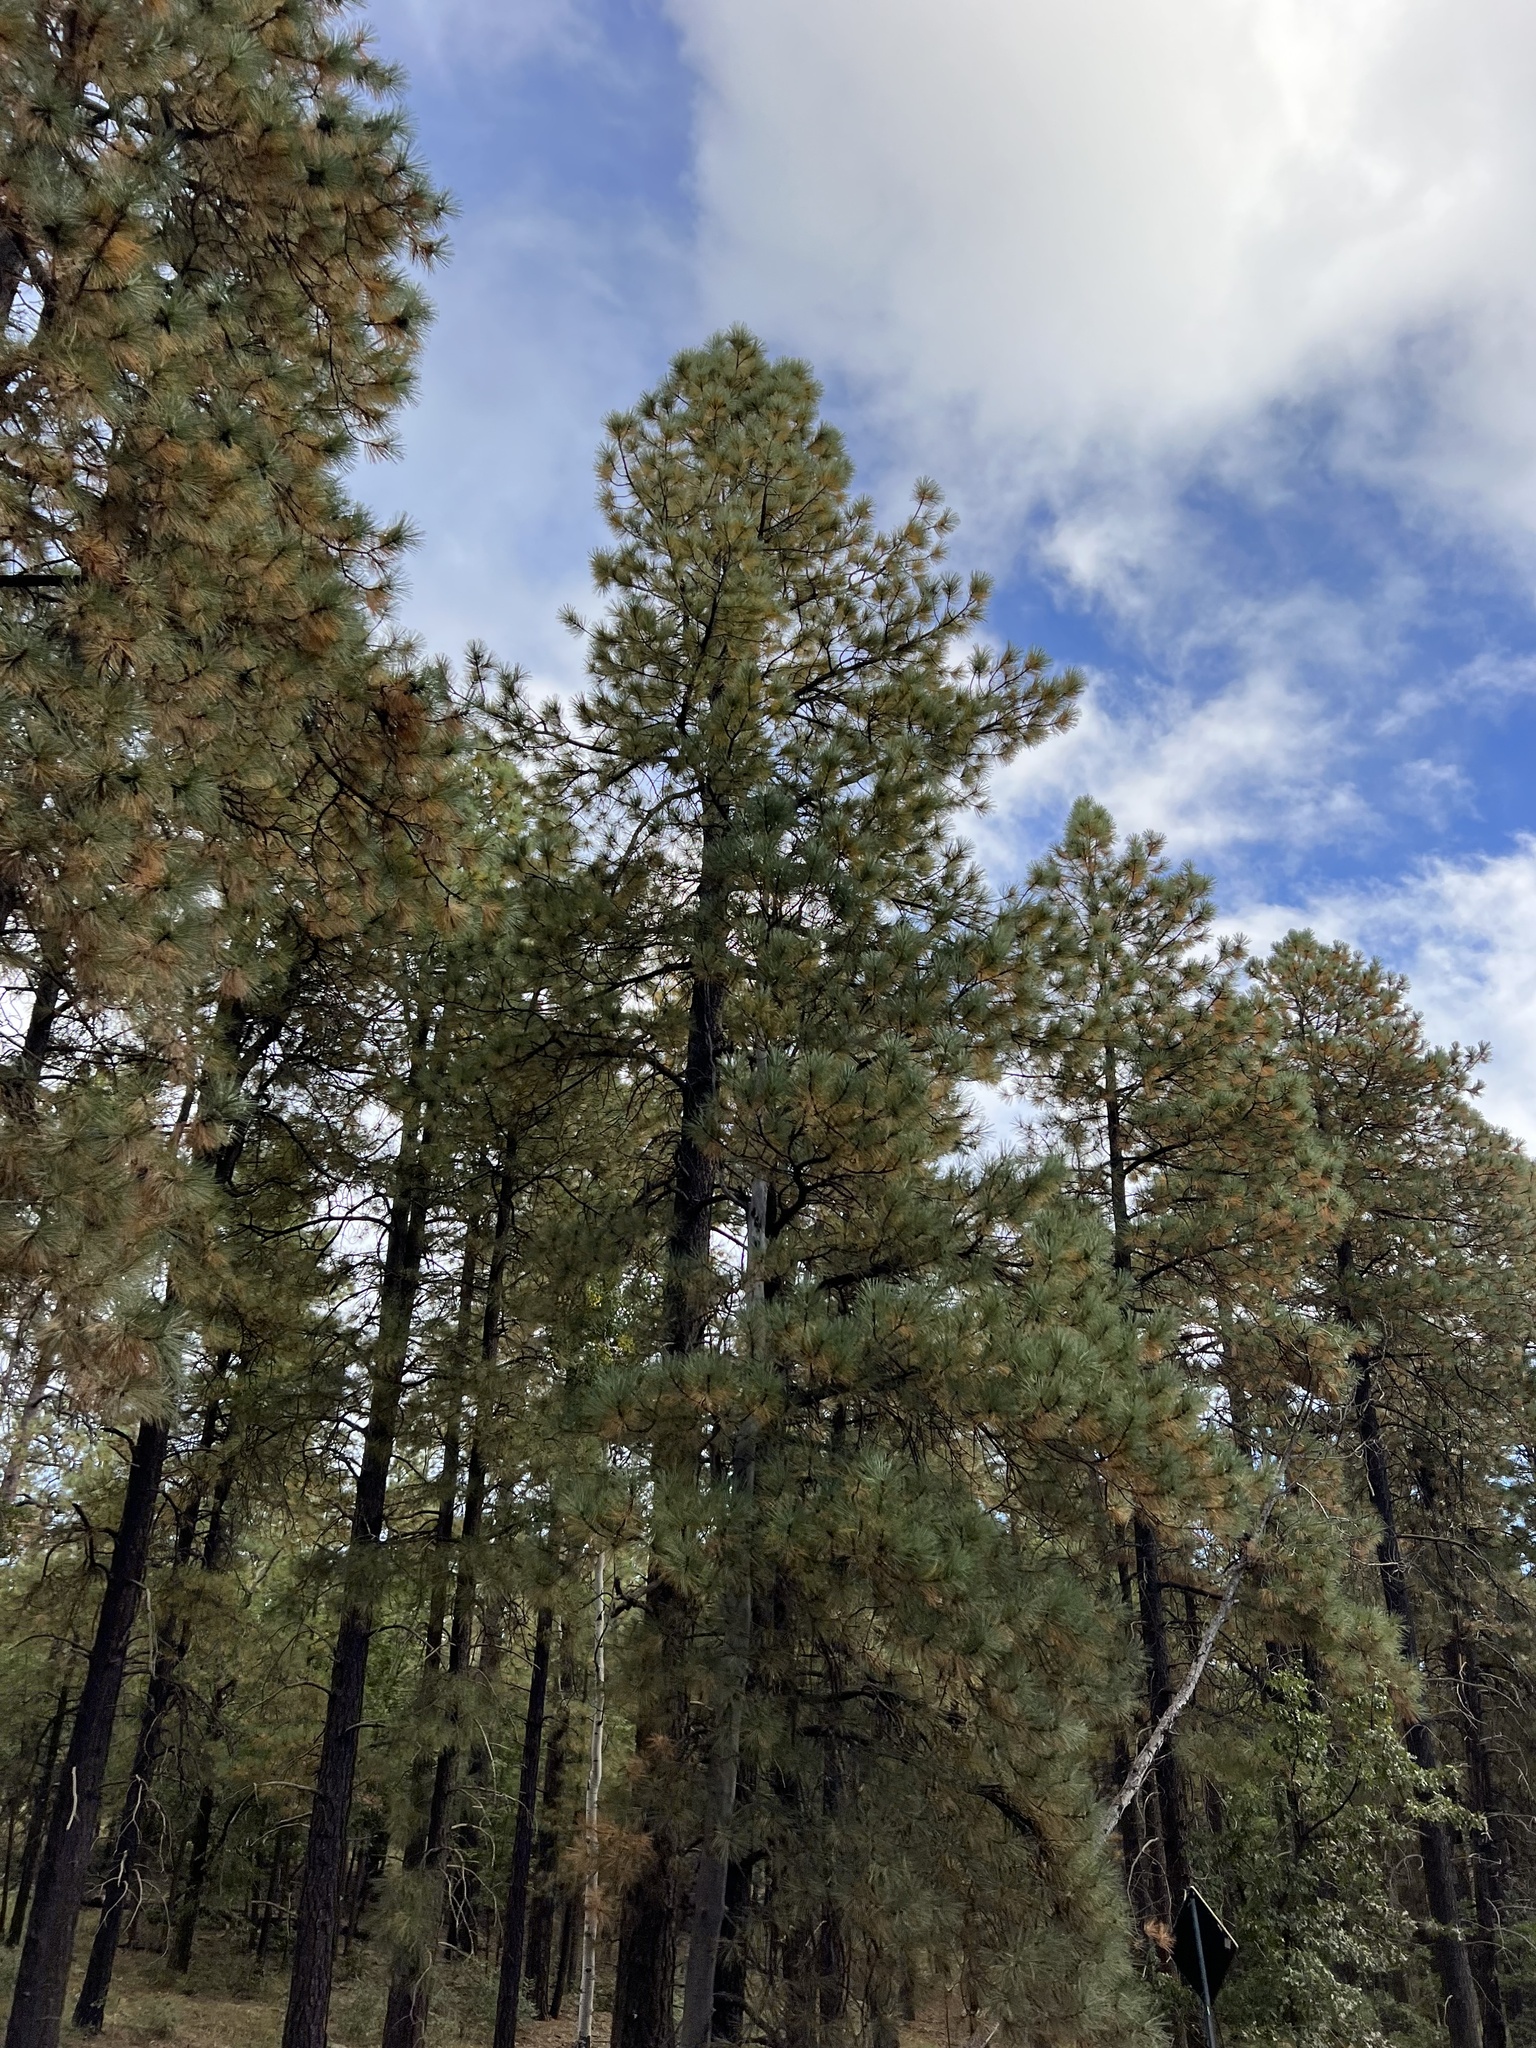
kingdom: Plantae
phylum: Tracheophyta
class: Pinopsida
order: Pinales
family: Pinaceae
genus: Pinus
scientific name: Pinus ponderosa
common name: Western yellow-pine
